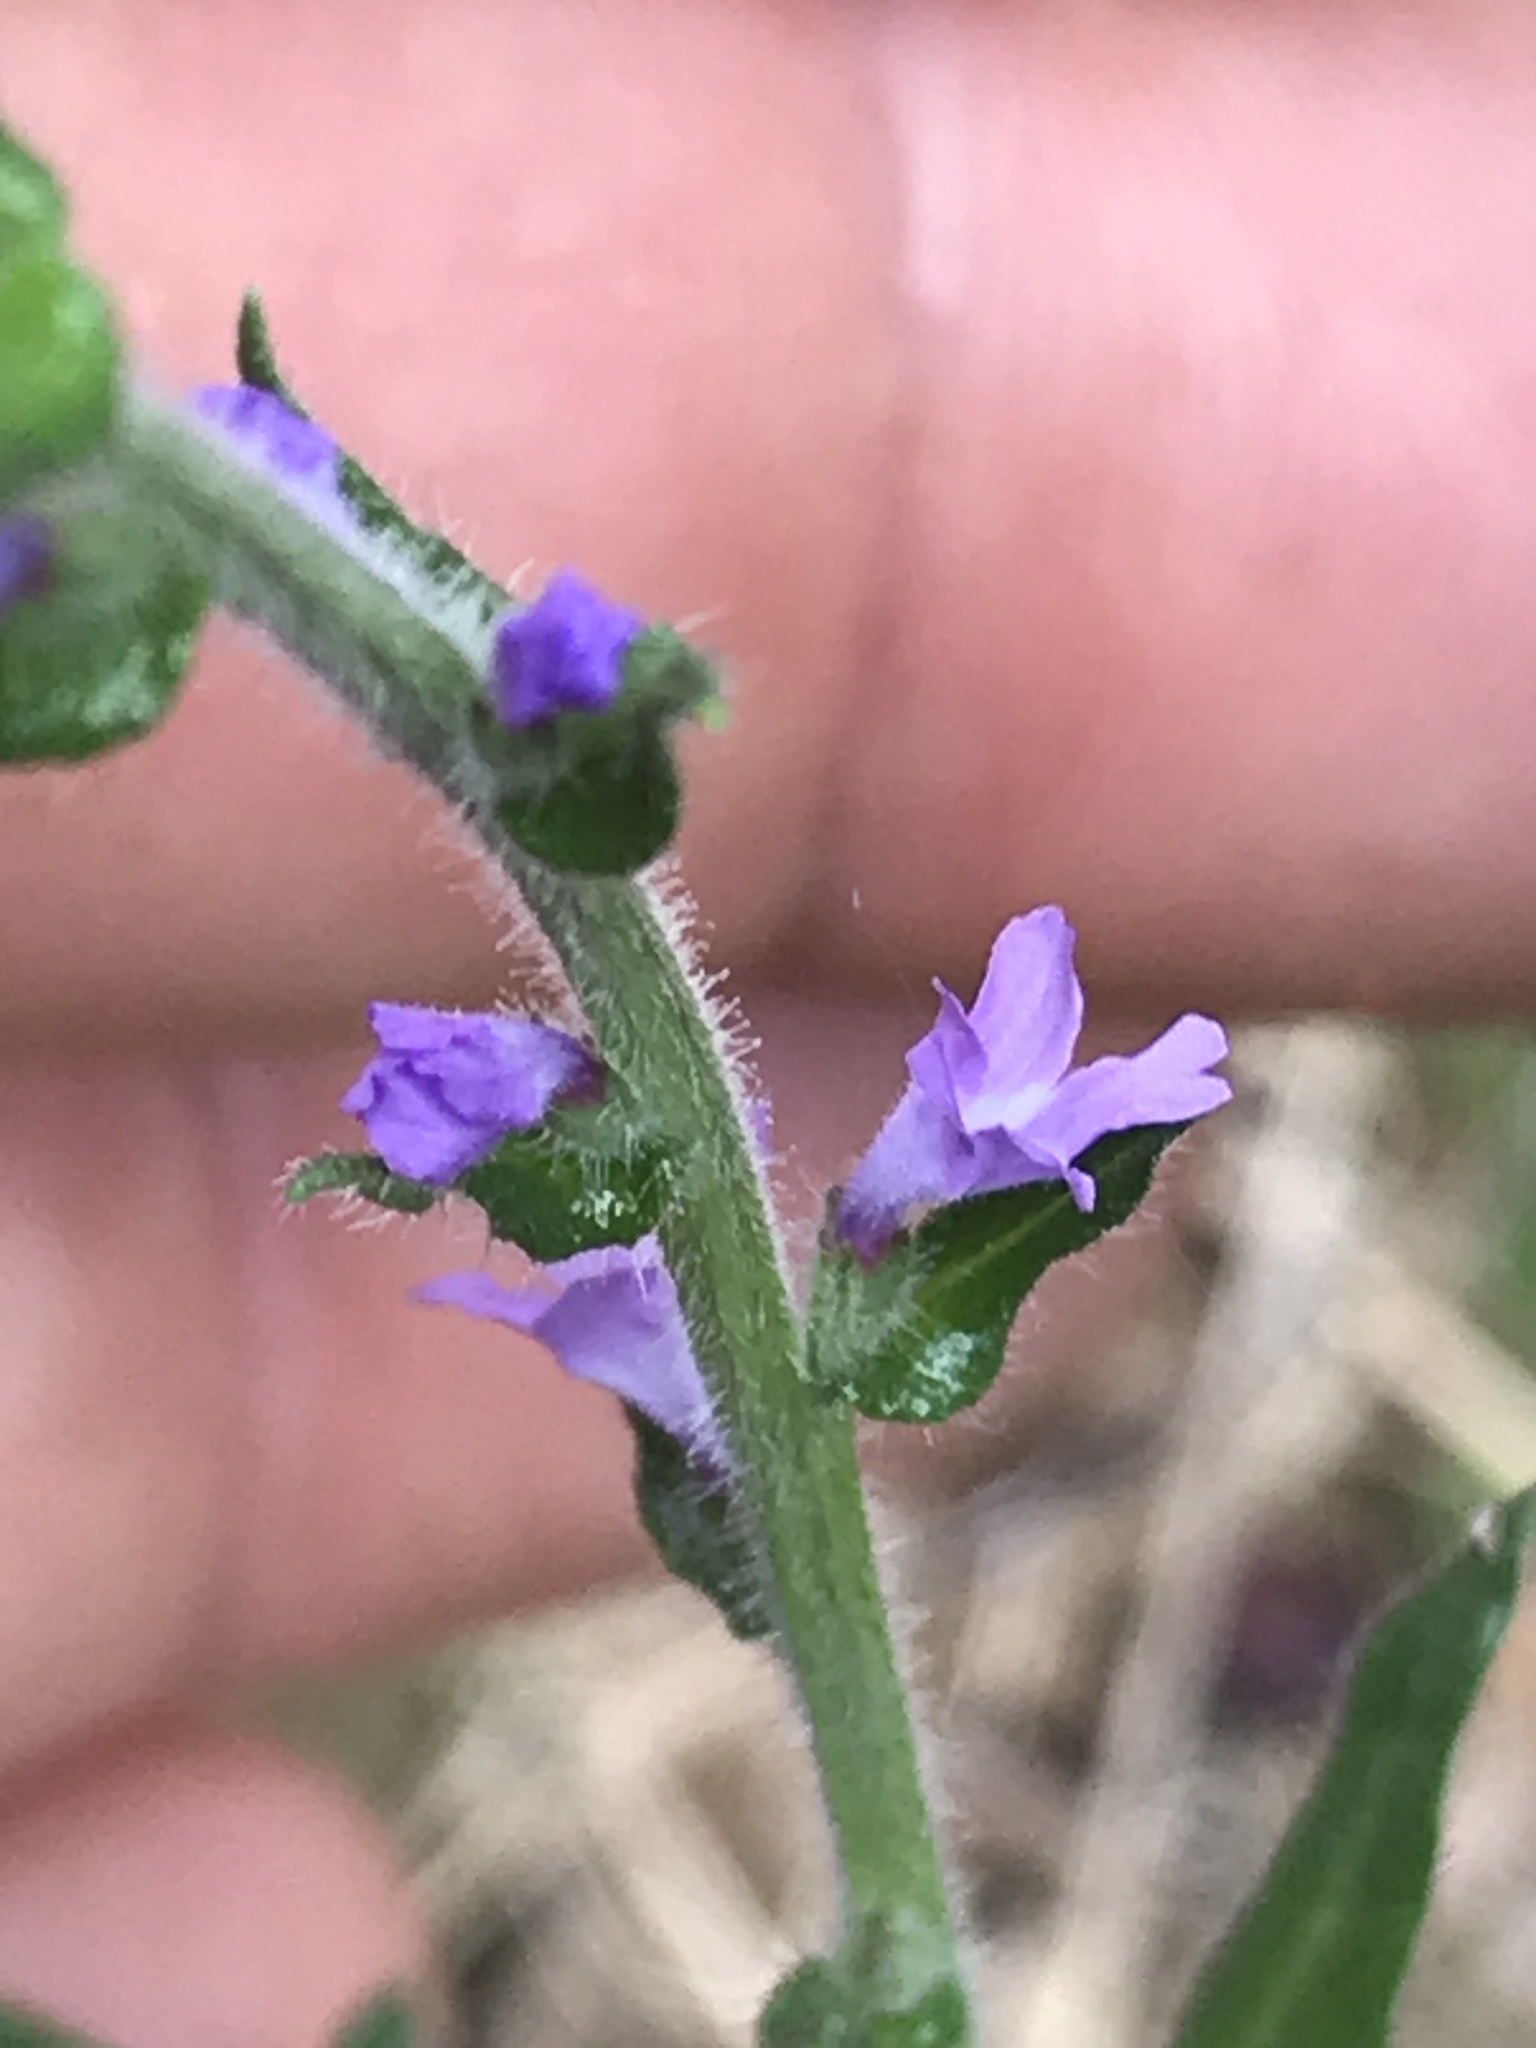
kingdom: Plantae
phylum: Tracheophyta
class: Magnoliopsida
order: Lamiales
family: Verbenaceae
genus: Verbena
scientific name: Verbena canescens
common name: Gray vervain
